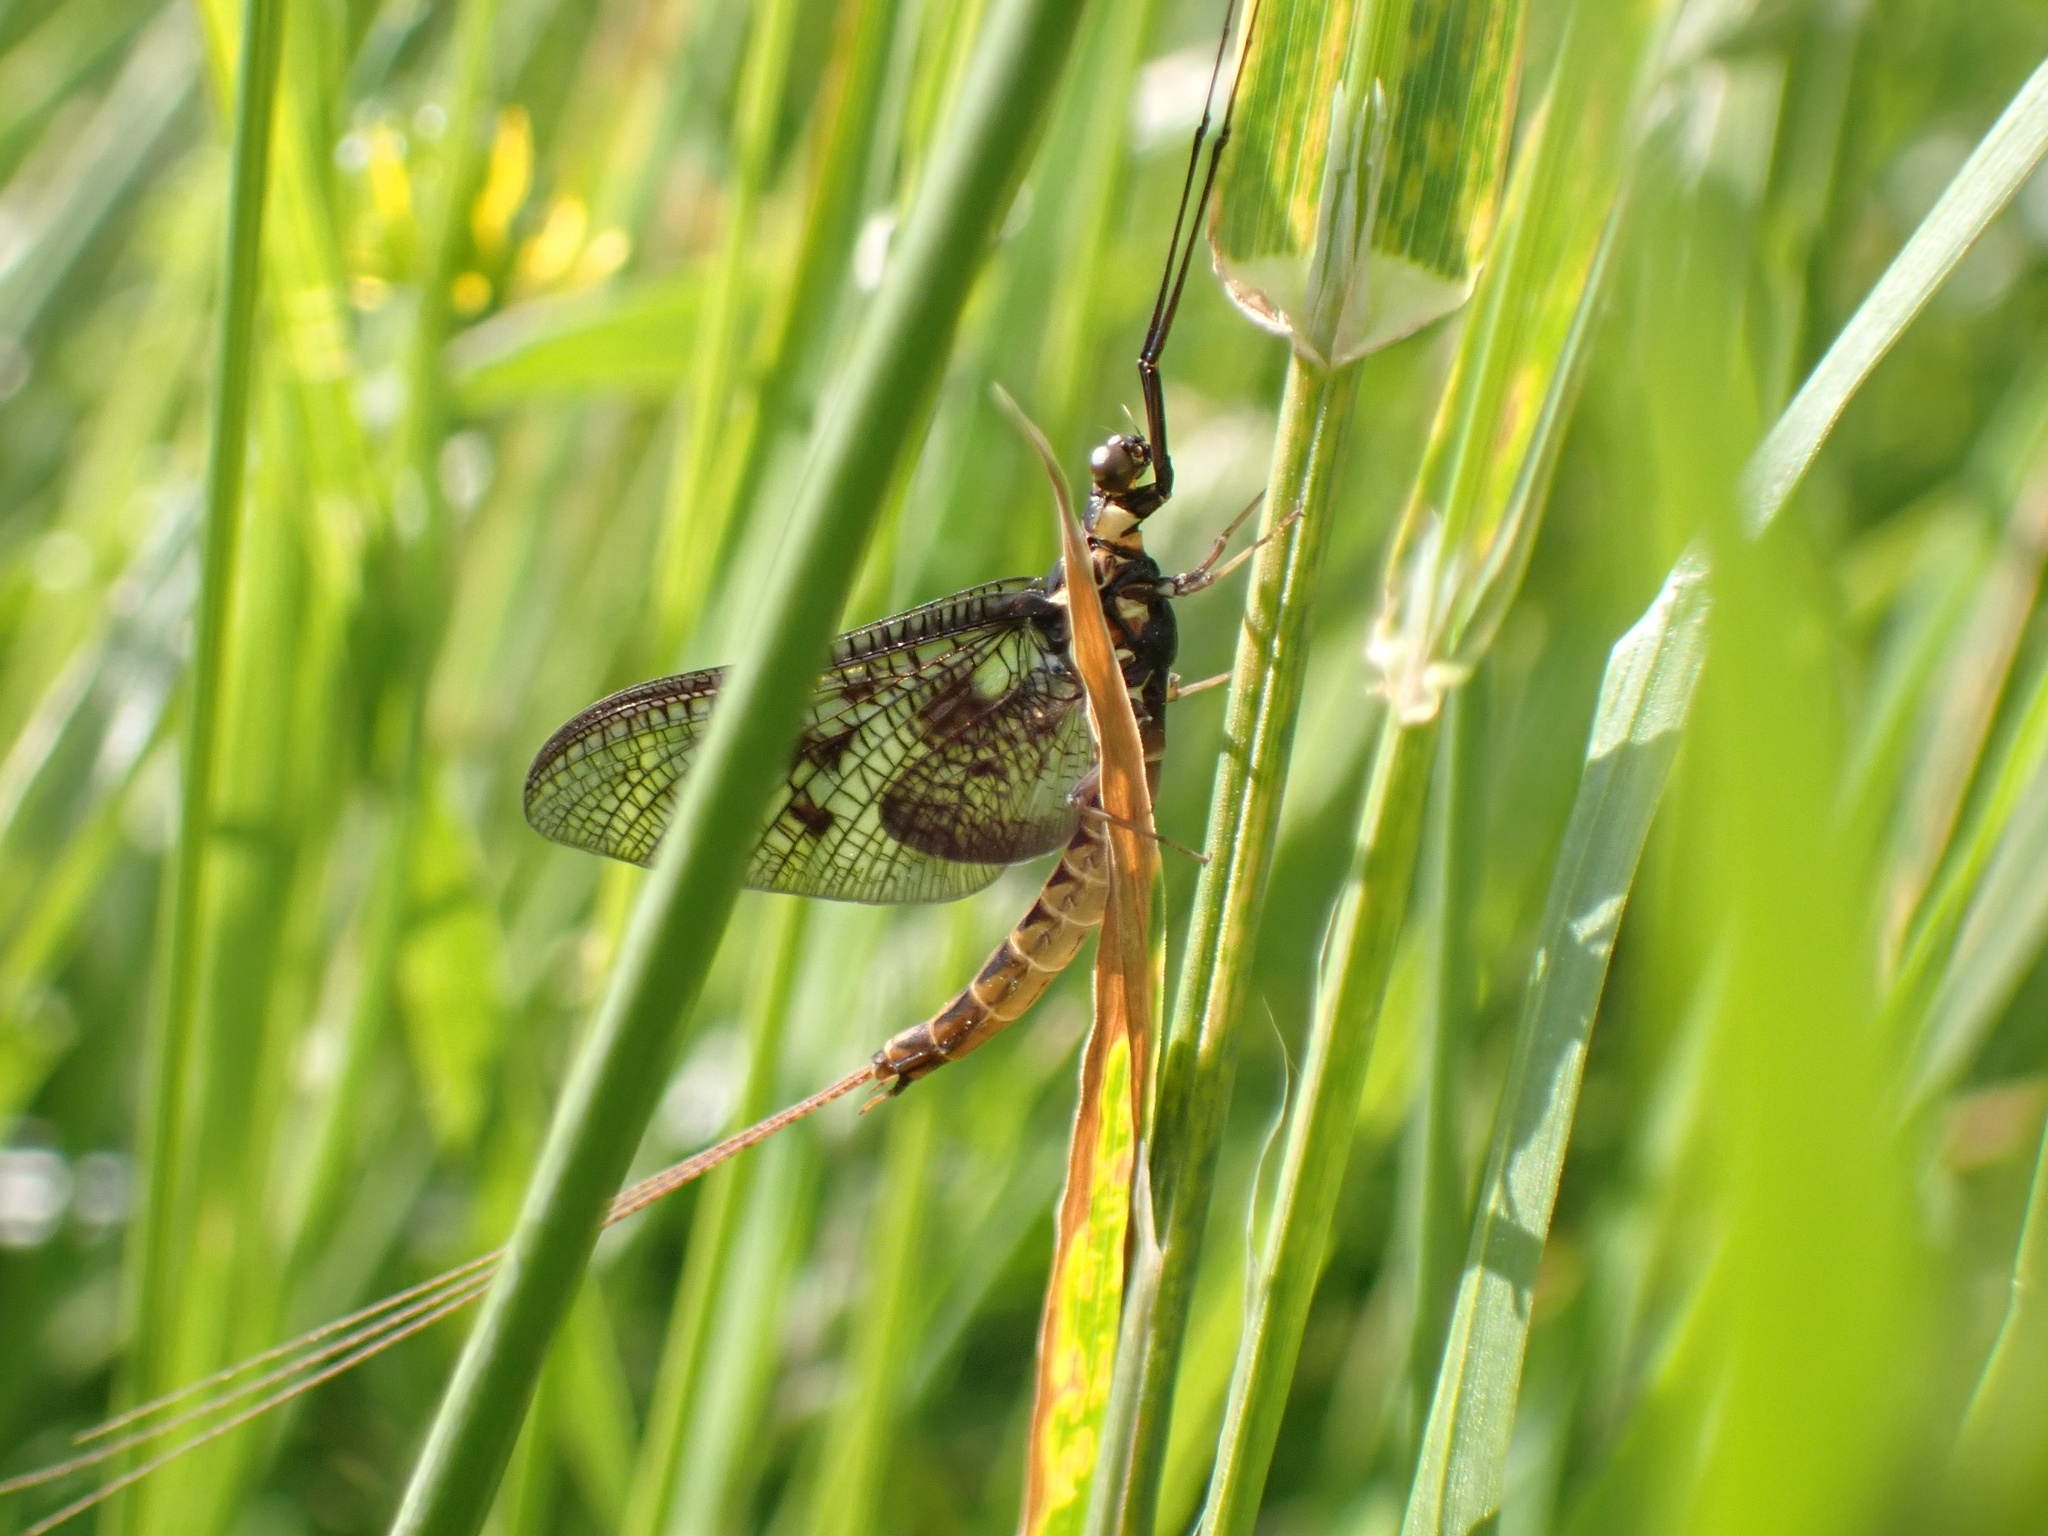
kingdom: Animalia
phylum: Arthropoda
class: Insecta
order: Ephemeroptera
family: Ephemeridae
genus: Ephemera
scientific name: Ephemera vulgata
